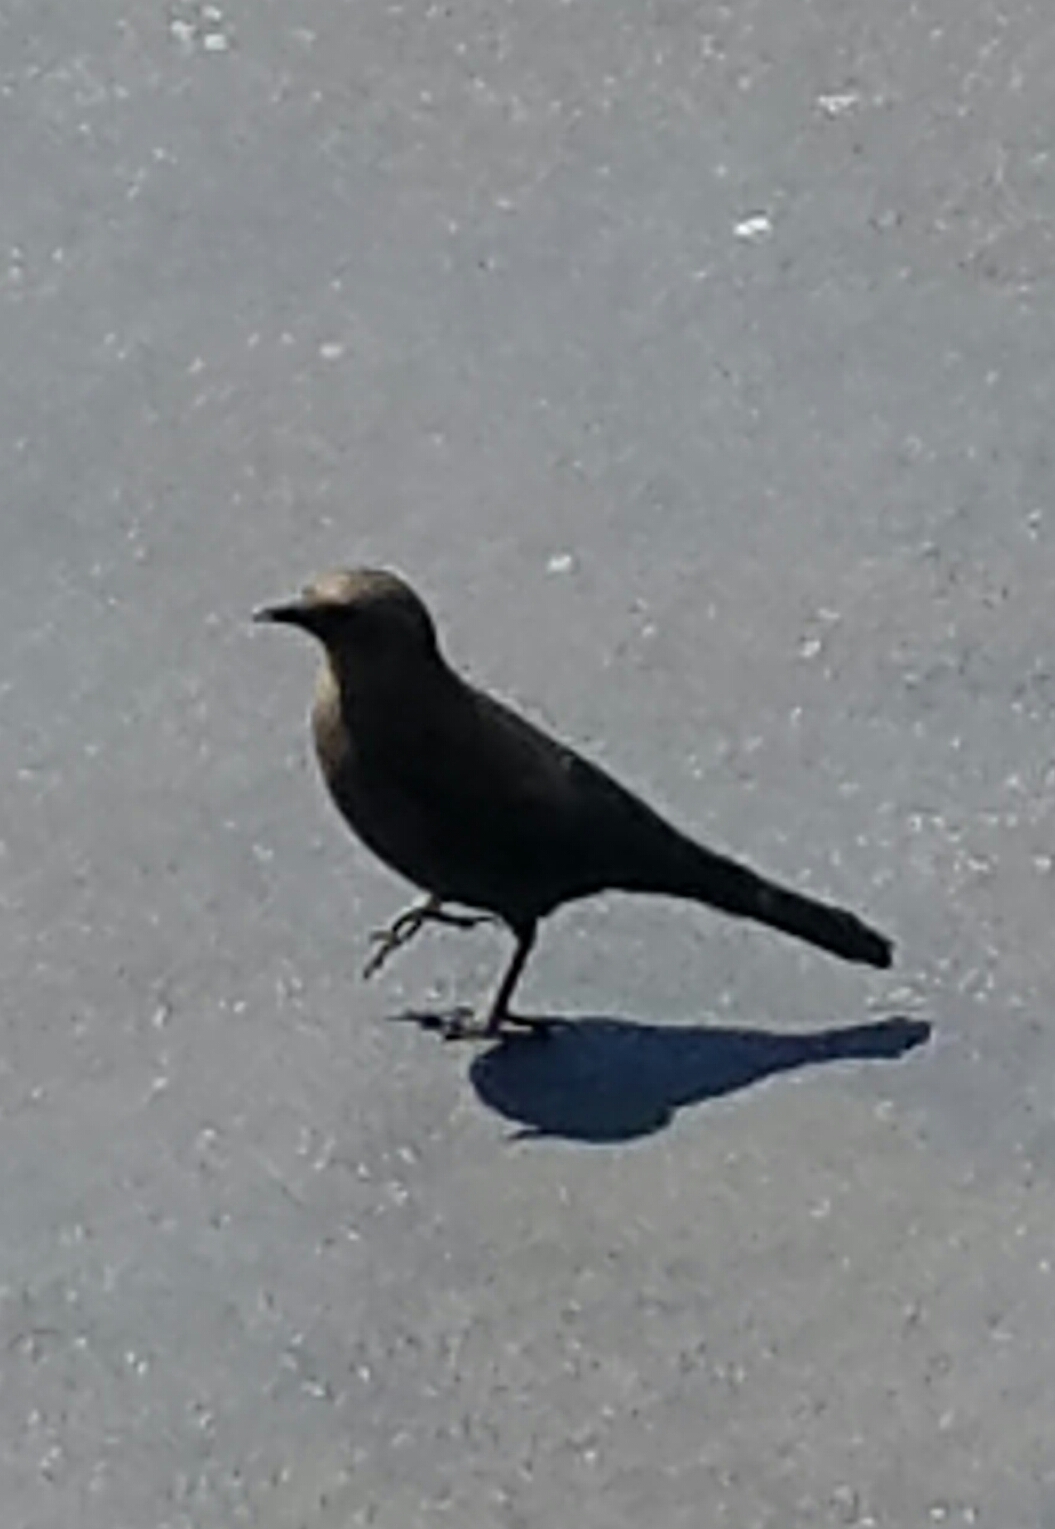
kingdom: Animalia
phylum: Chordata
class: Aves
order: Passeriformes
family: Icteridae
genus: Euphagus
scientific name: Euphagus cyanocephalus
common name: Brewer's blackbird
